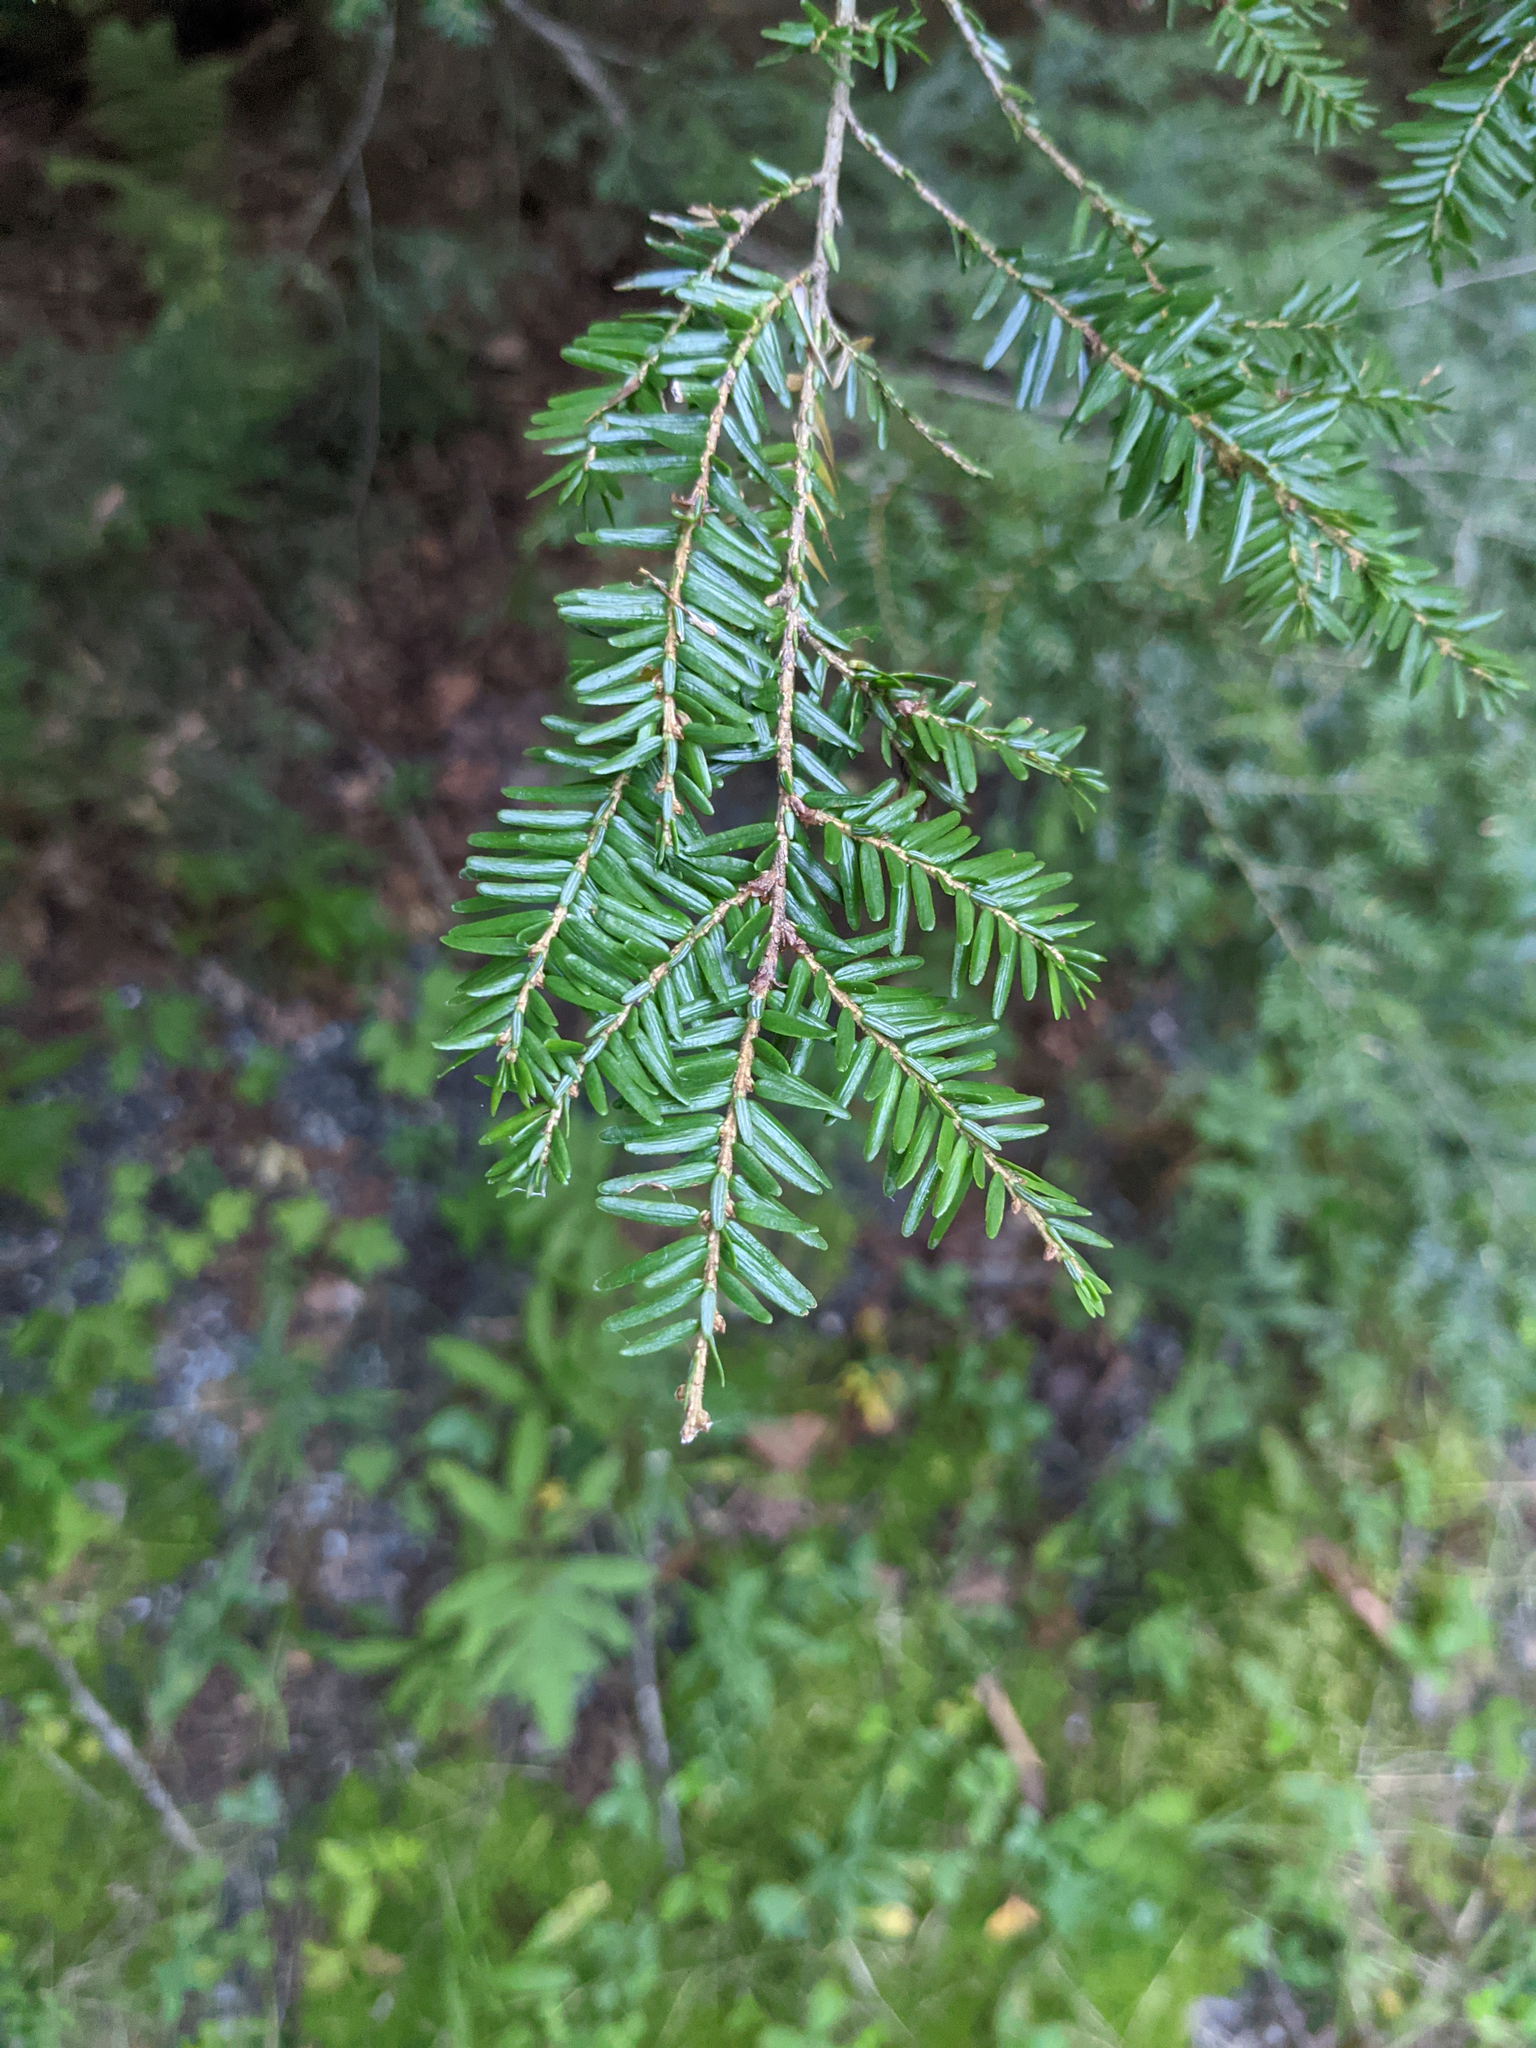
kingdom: Plantae
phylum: Tracheophyta
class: Pinopsida
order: Pinales
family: Pinaceae
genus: Tsuga
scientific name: Tsuga canadensis
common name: Eastern hemlock
